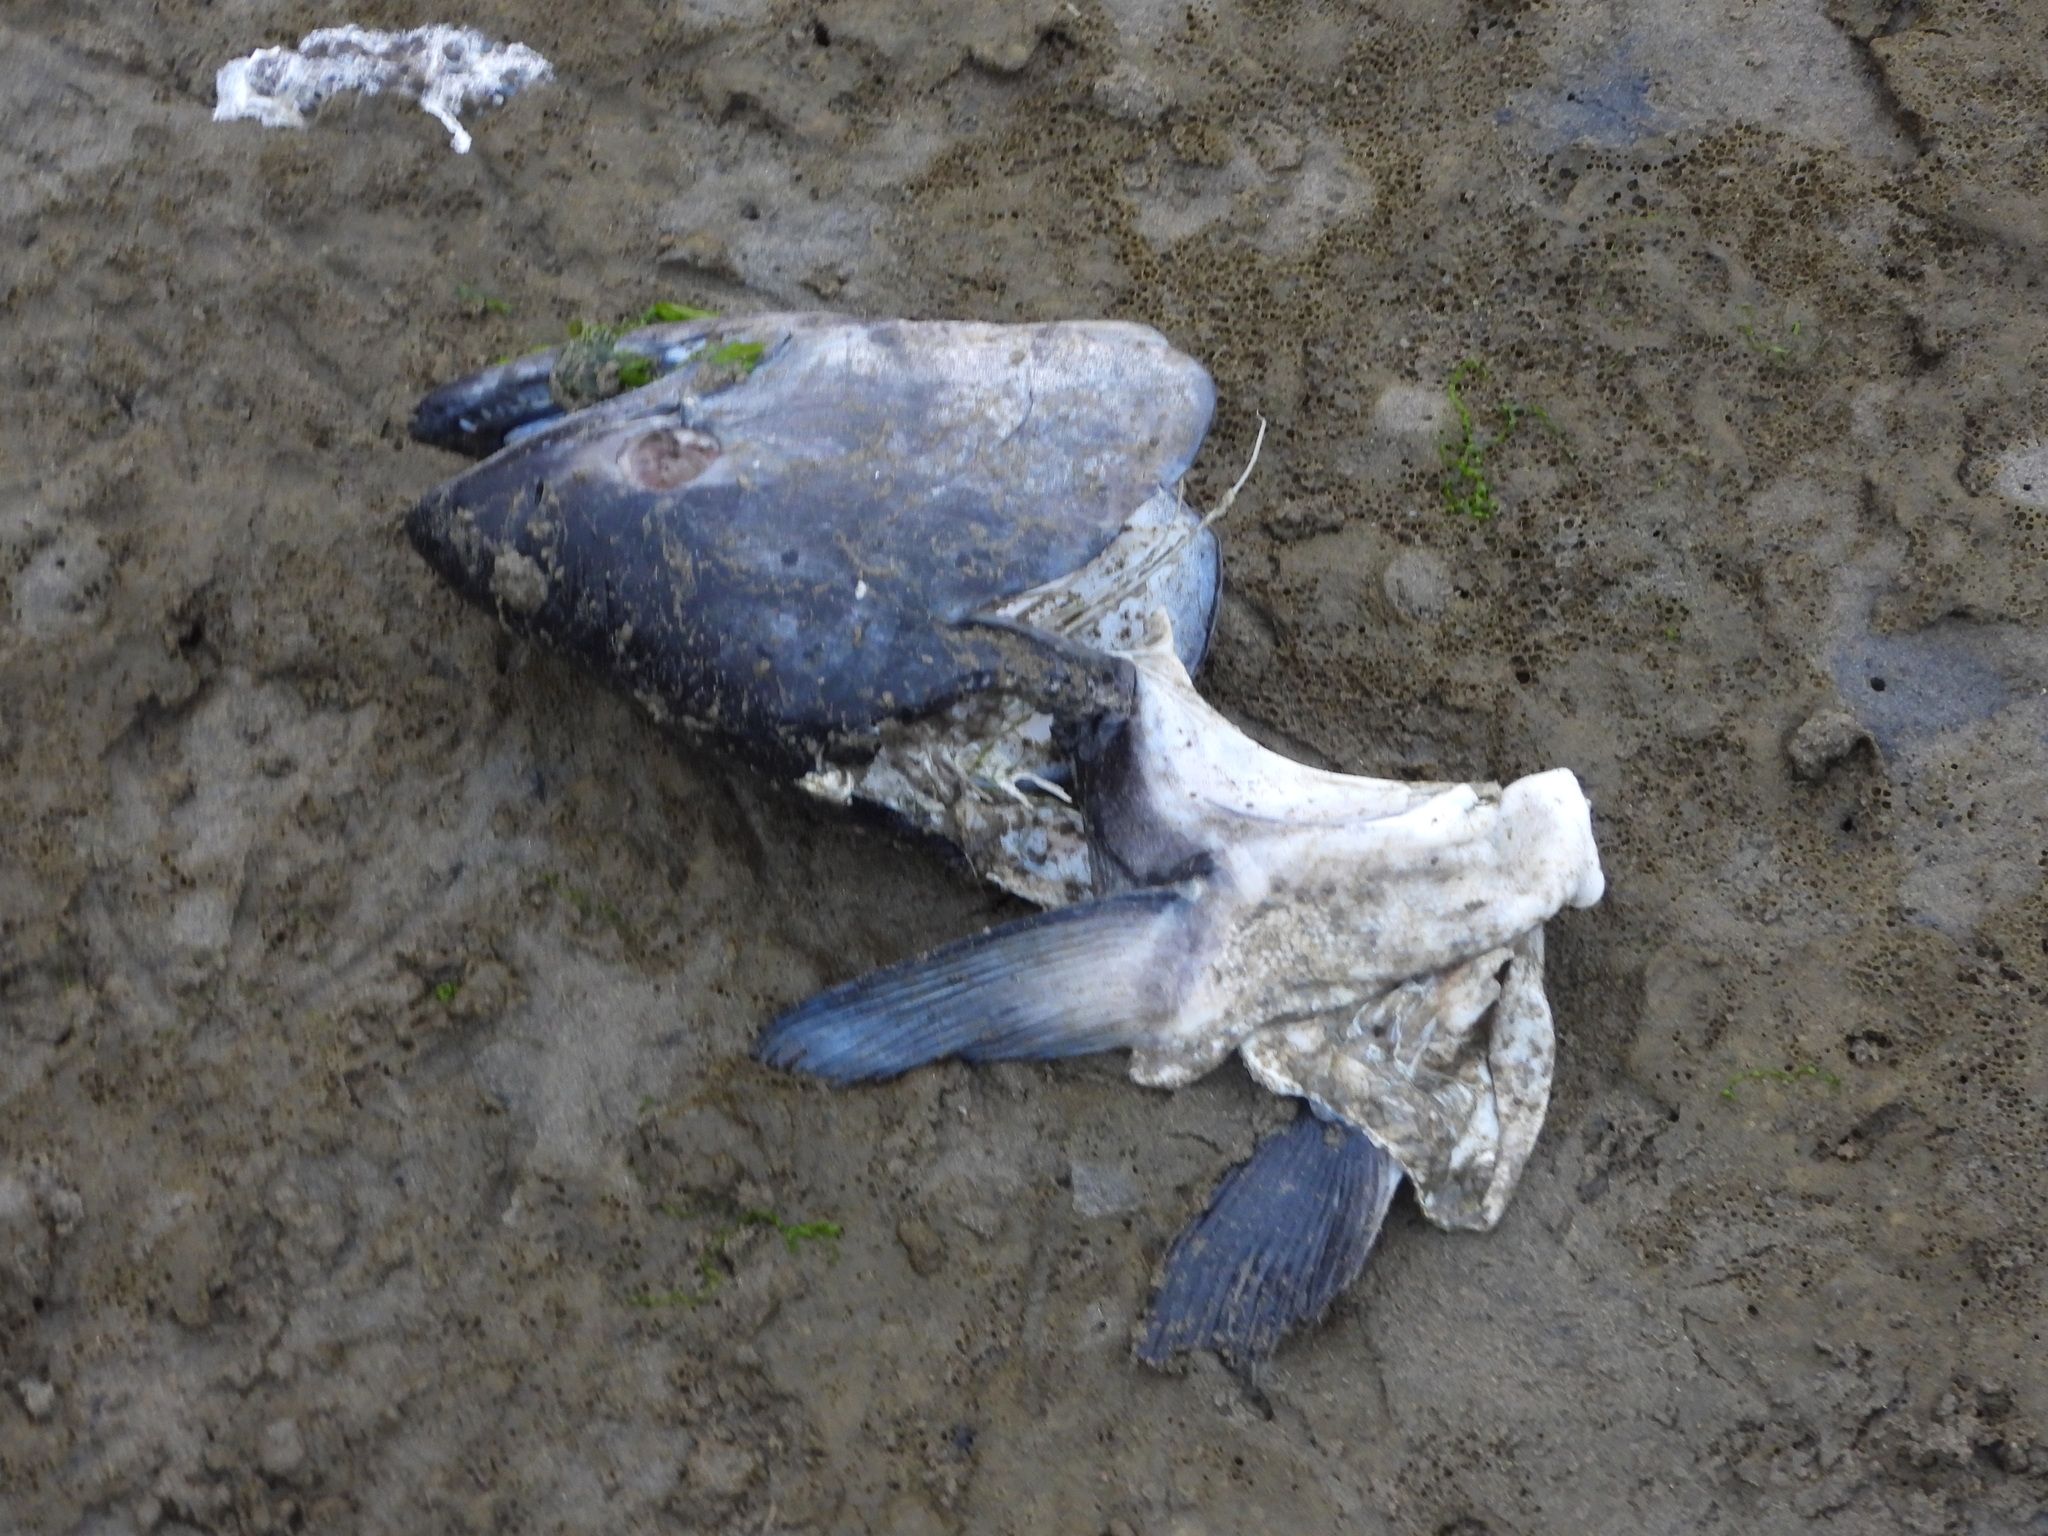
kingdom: Animalia
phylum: Chordata
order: Salmoniformes
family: Salmonidae
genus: Oncorhynchus
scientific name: Oncorhynchus tshawytscha
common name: Chinook salmon
